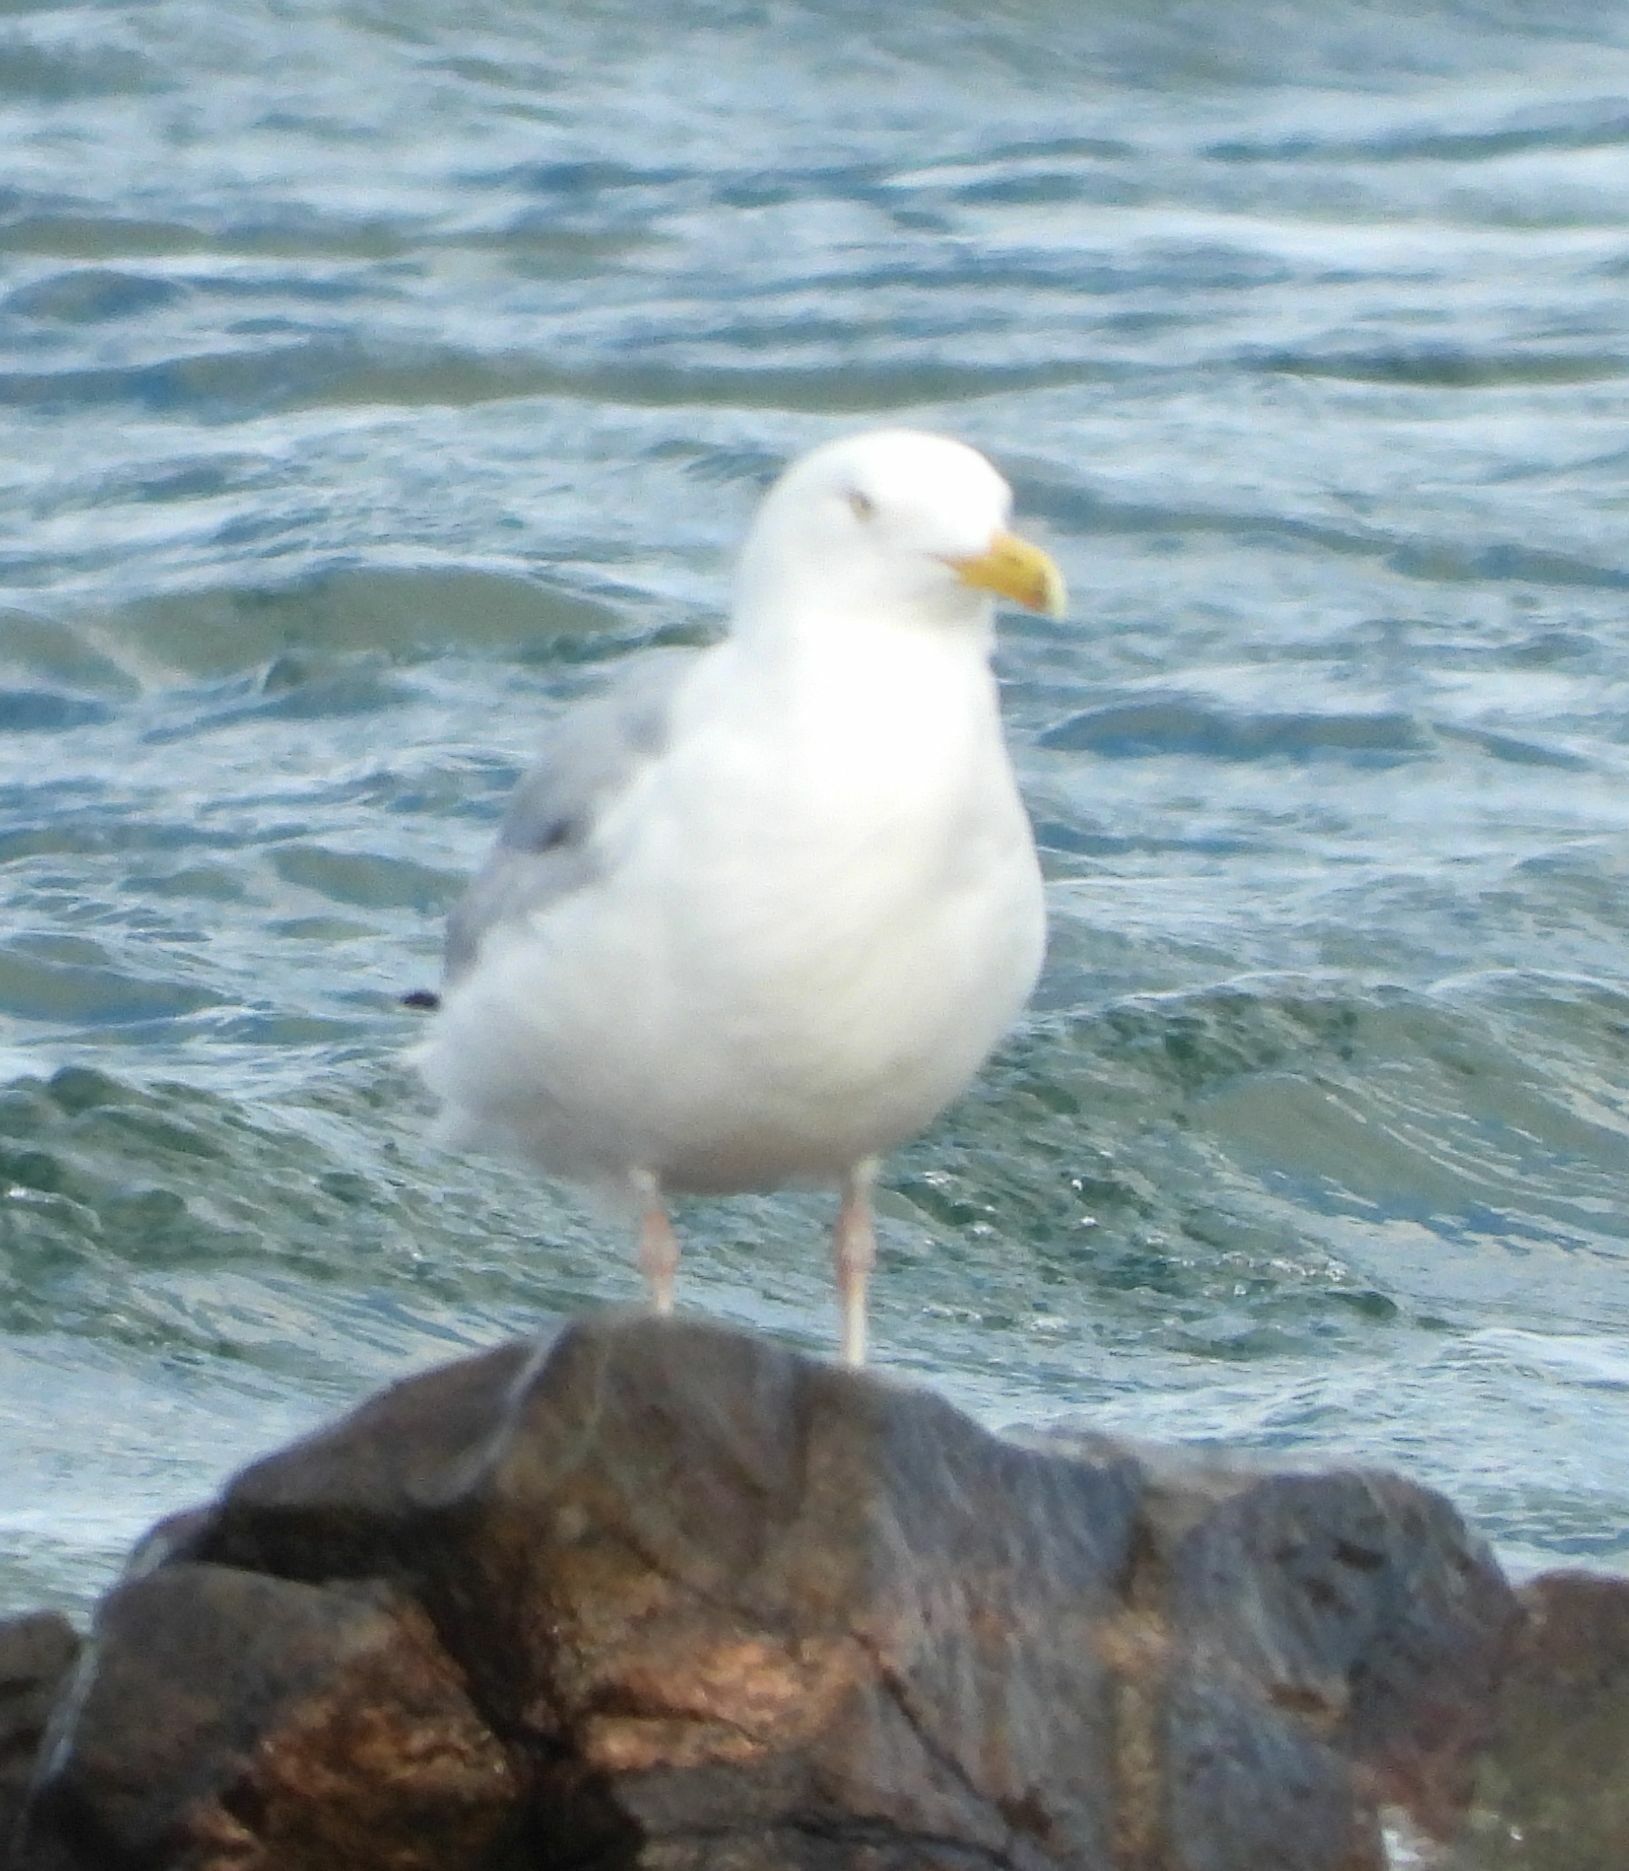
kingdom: Animalia
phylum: Chordata
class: Aves
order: Charadriiformes
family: Laridae
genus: Larus
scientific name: Larus argentatus
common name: Herring gull
